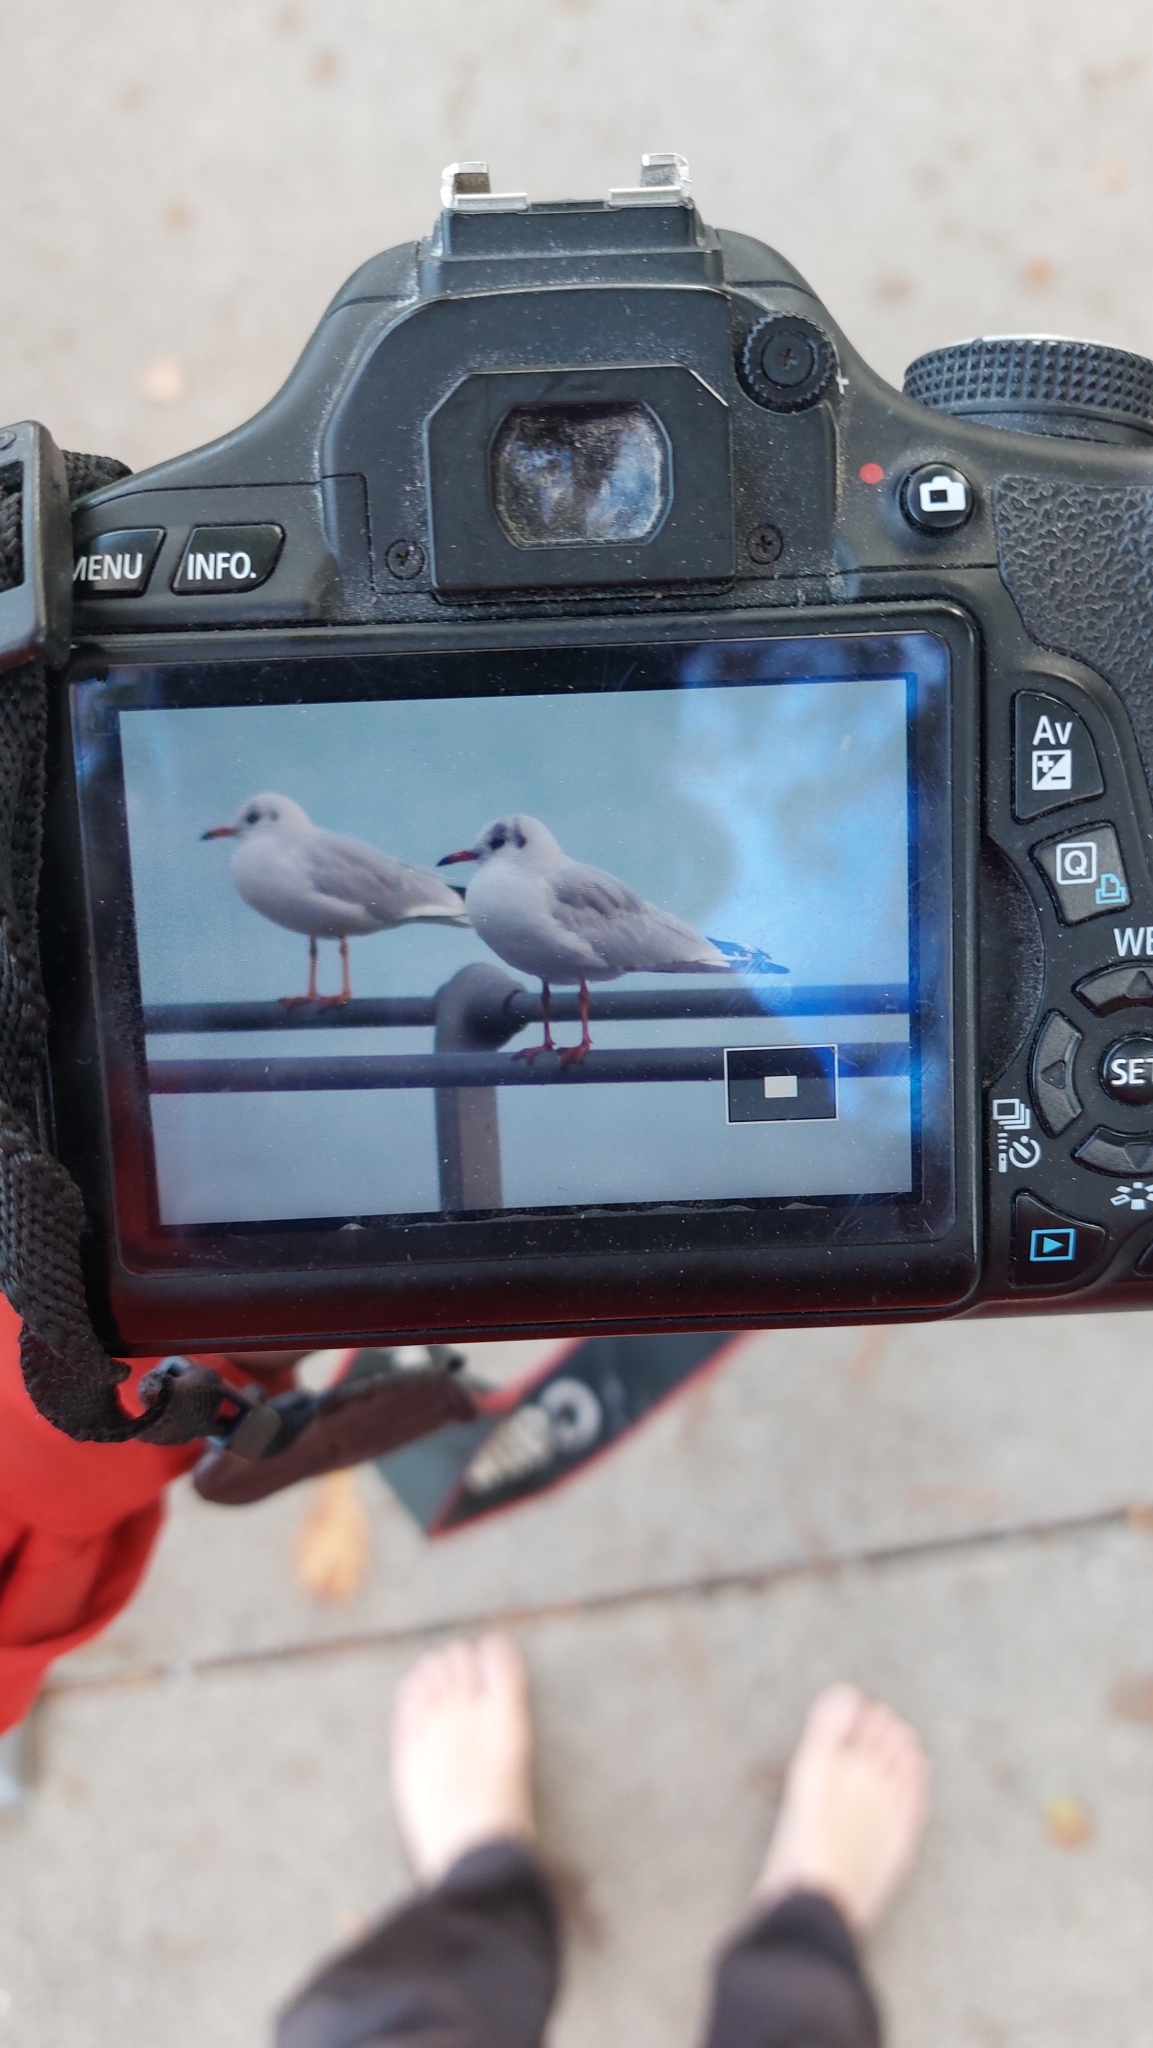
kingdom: Animalia
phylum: Chordata
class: Aves
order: Charadriiformes
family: Laridae
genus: Chroicocephalus
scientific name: Chroicocephalus ridibundus
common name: Black-headed gull
